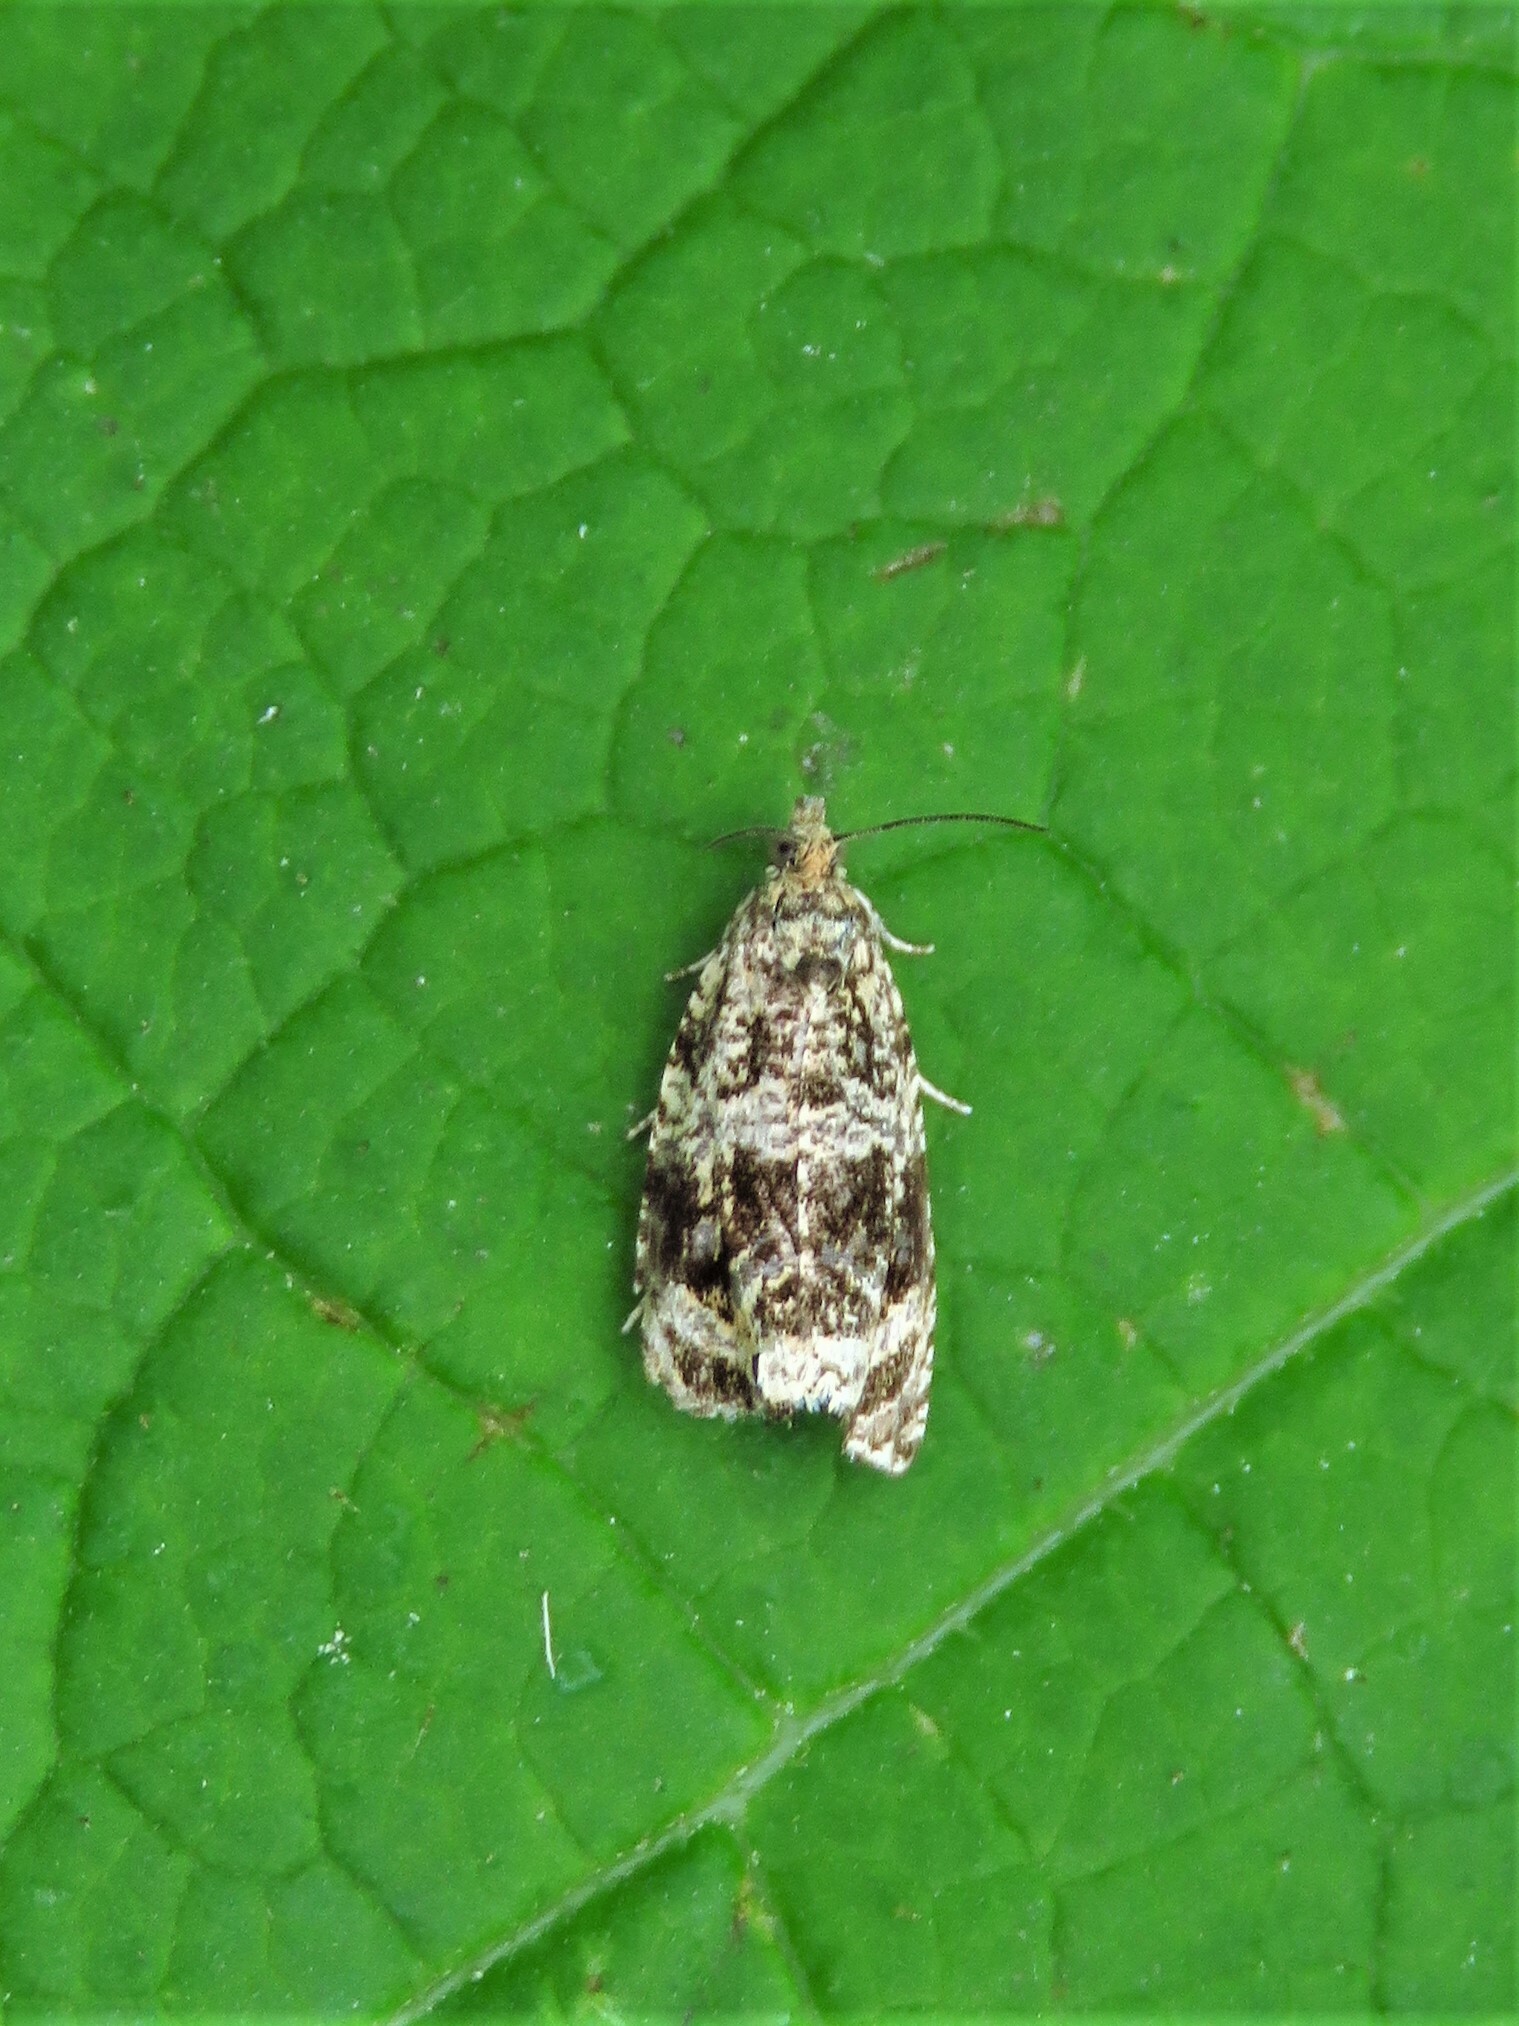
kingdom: Animalia
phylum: Arthropoda
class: Insecta
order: Lepidoptera
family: Tortricidae
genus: Syricoris
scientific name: Syricoris lacunana
